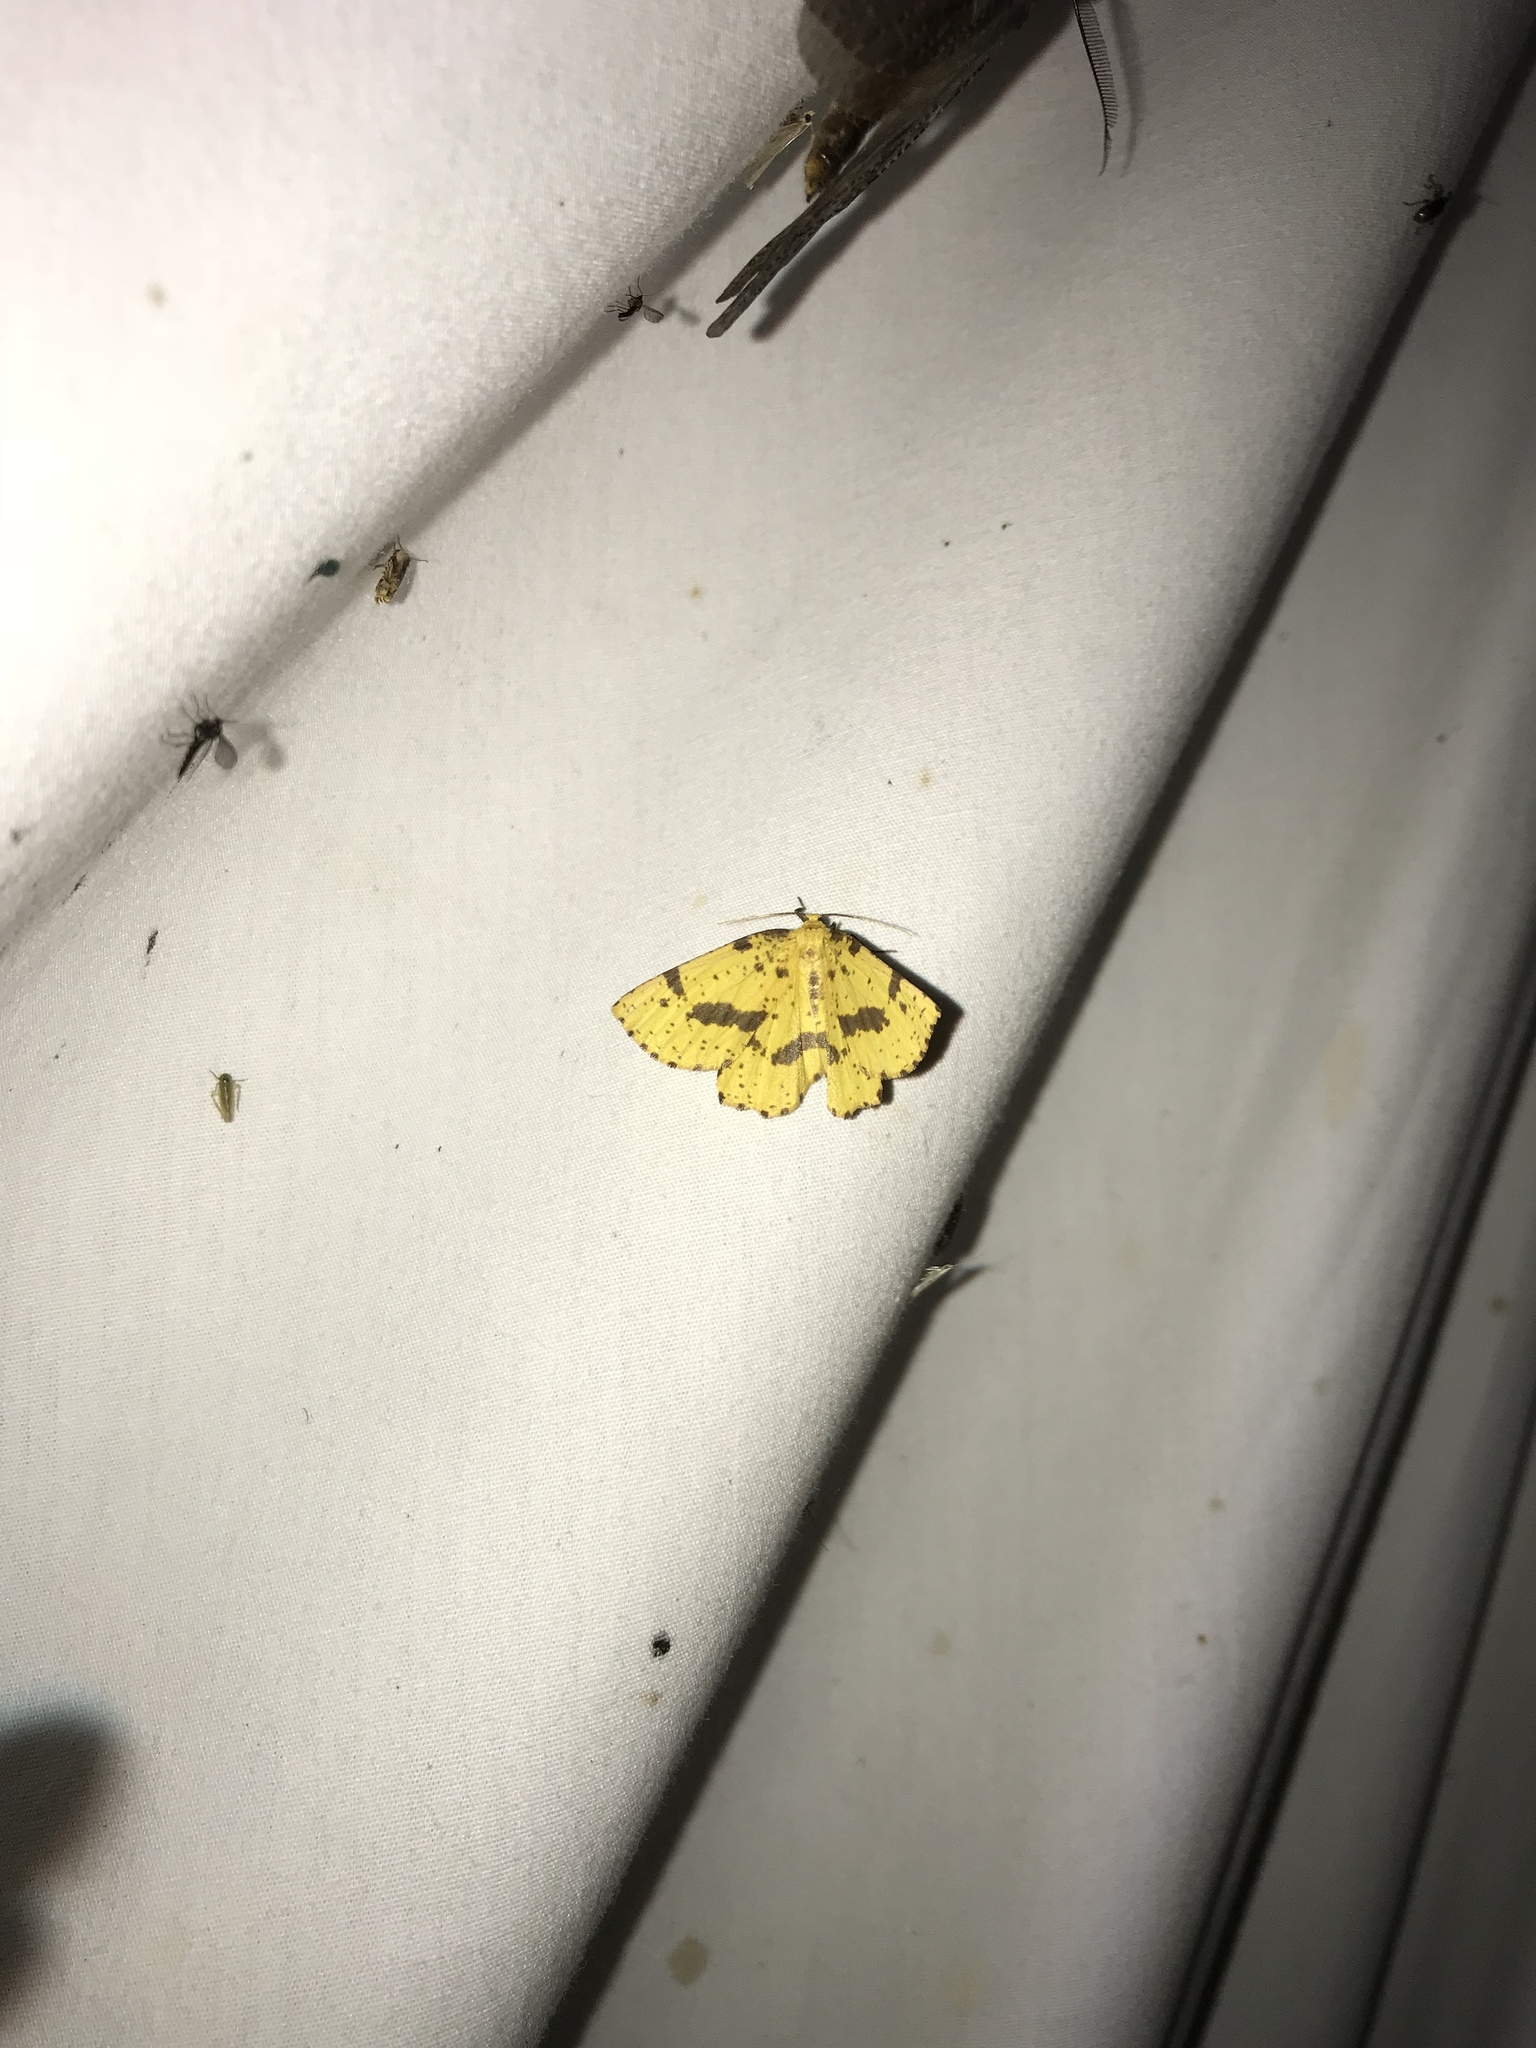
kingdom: Animalia
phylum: Arthropoda
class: Insecta
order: Lepidoptera
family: Geometridae
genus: Xanthotype
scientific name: Xanthotype
